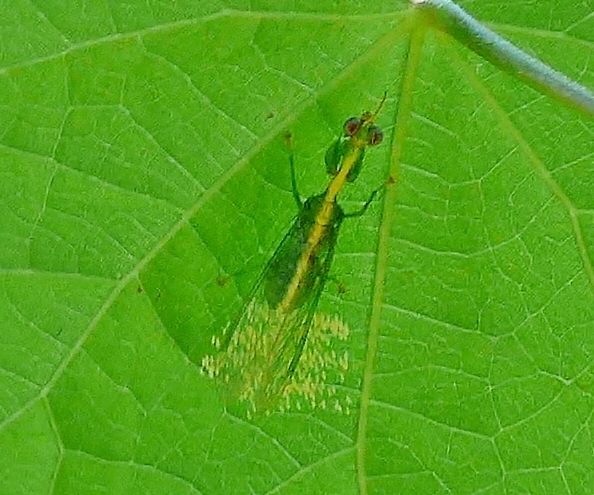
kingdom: Animalia
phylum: Arthropoda
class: Insecta
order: Neuroptera
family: Mantispidae
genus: Zeugomantispa
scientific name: Zeugomantispa minuta
